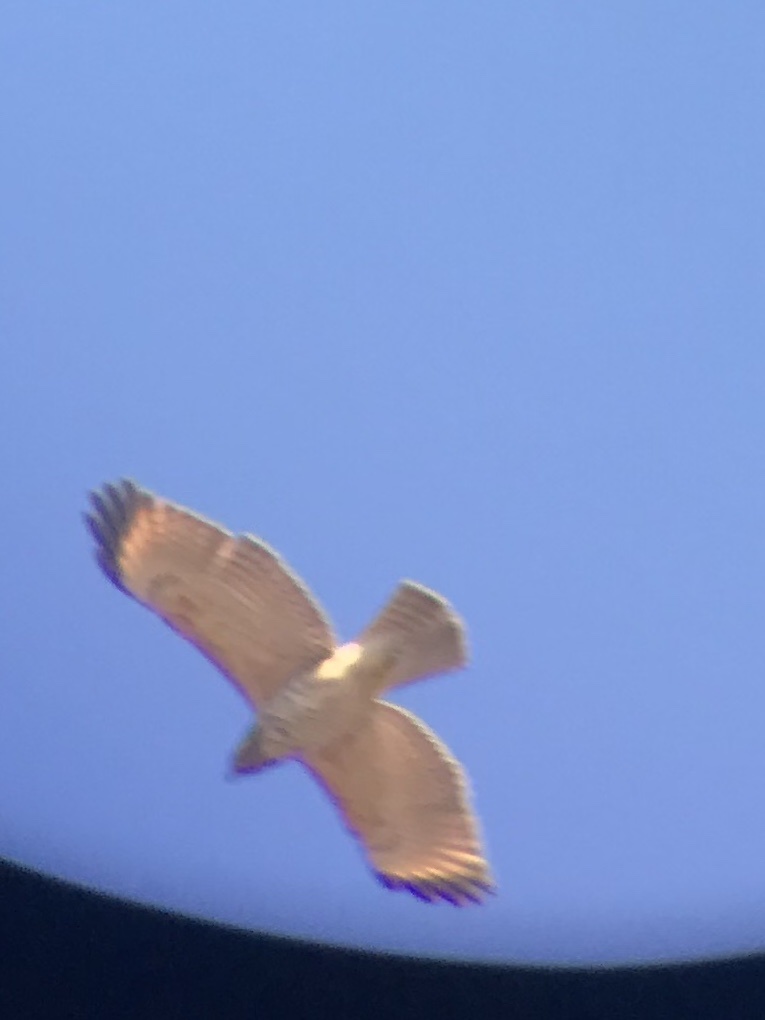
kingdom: Animalia
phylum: Chordata
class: Aves
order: Accipitriformes
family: Accipitridae
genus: Buteo
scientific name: Buteo lineatus
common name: Red-shouldered hawk
